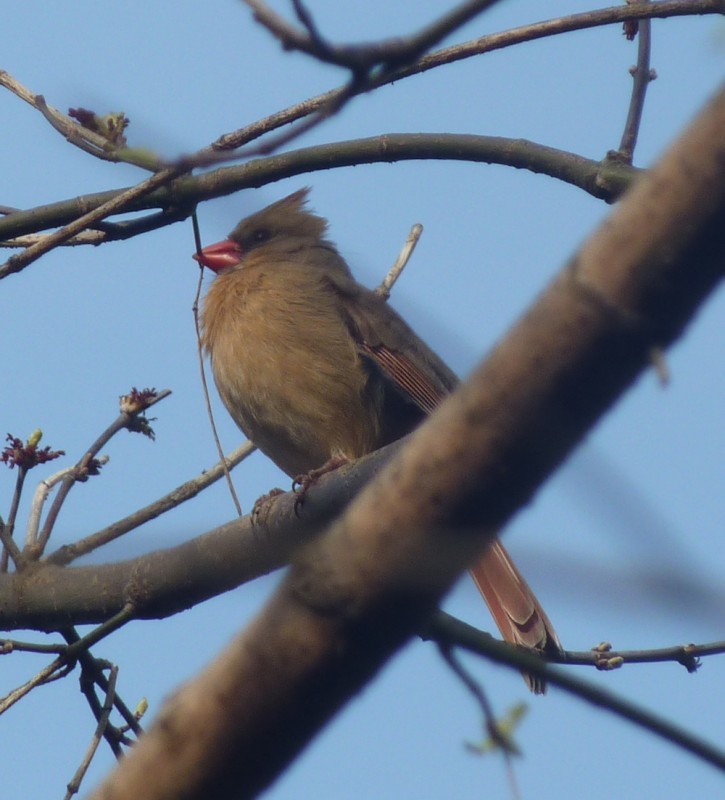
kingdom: Animalia
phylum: Chordata
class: Aves
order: Passeriformes
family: Cardinalidae
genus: Cardinalis
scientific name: Cardinalis cardinalis
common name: Northern cardinal
